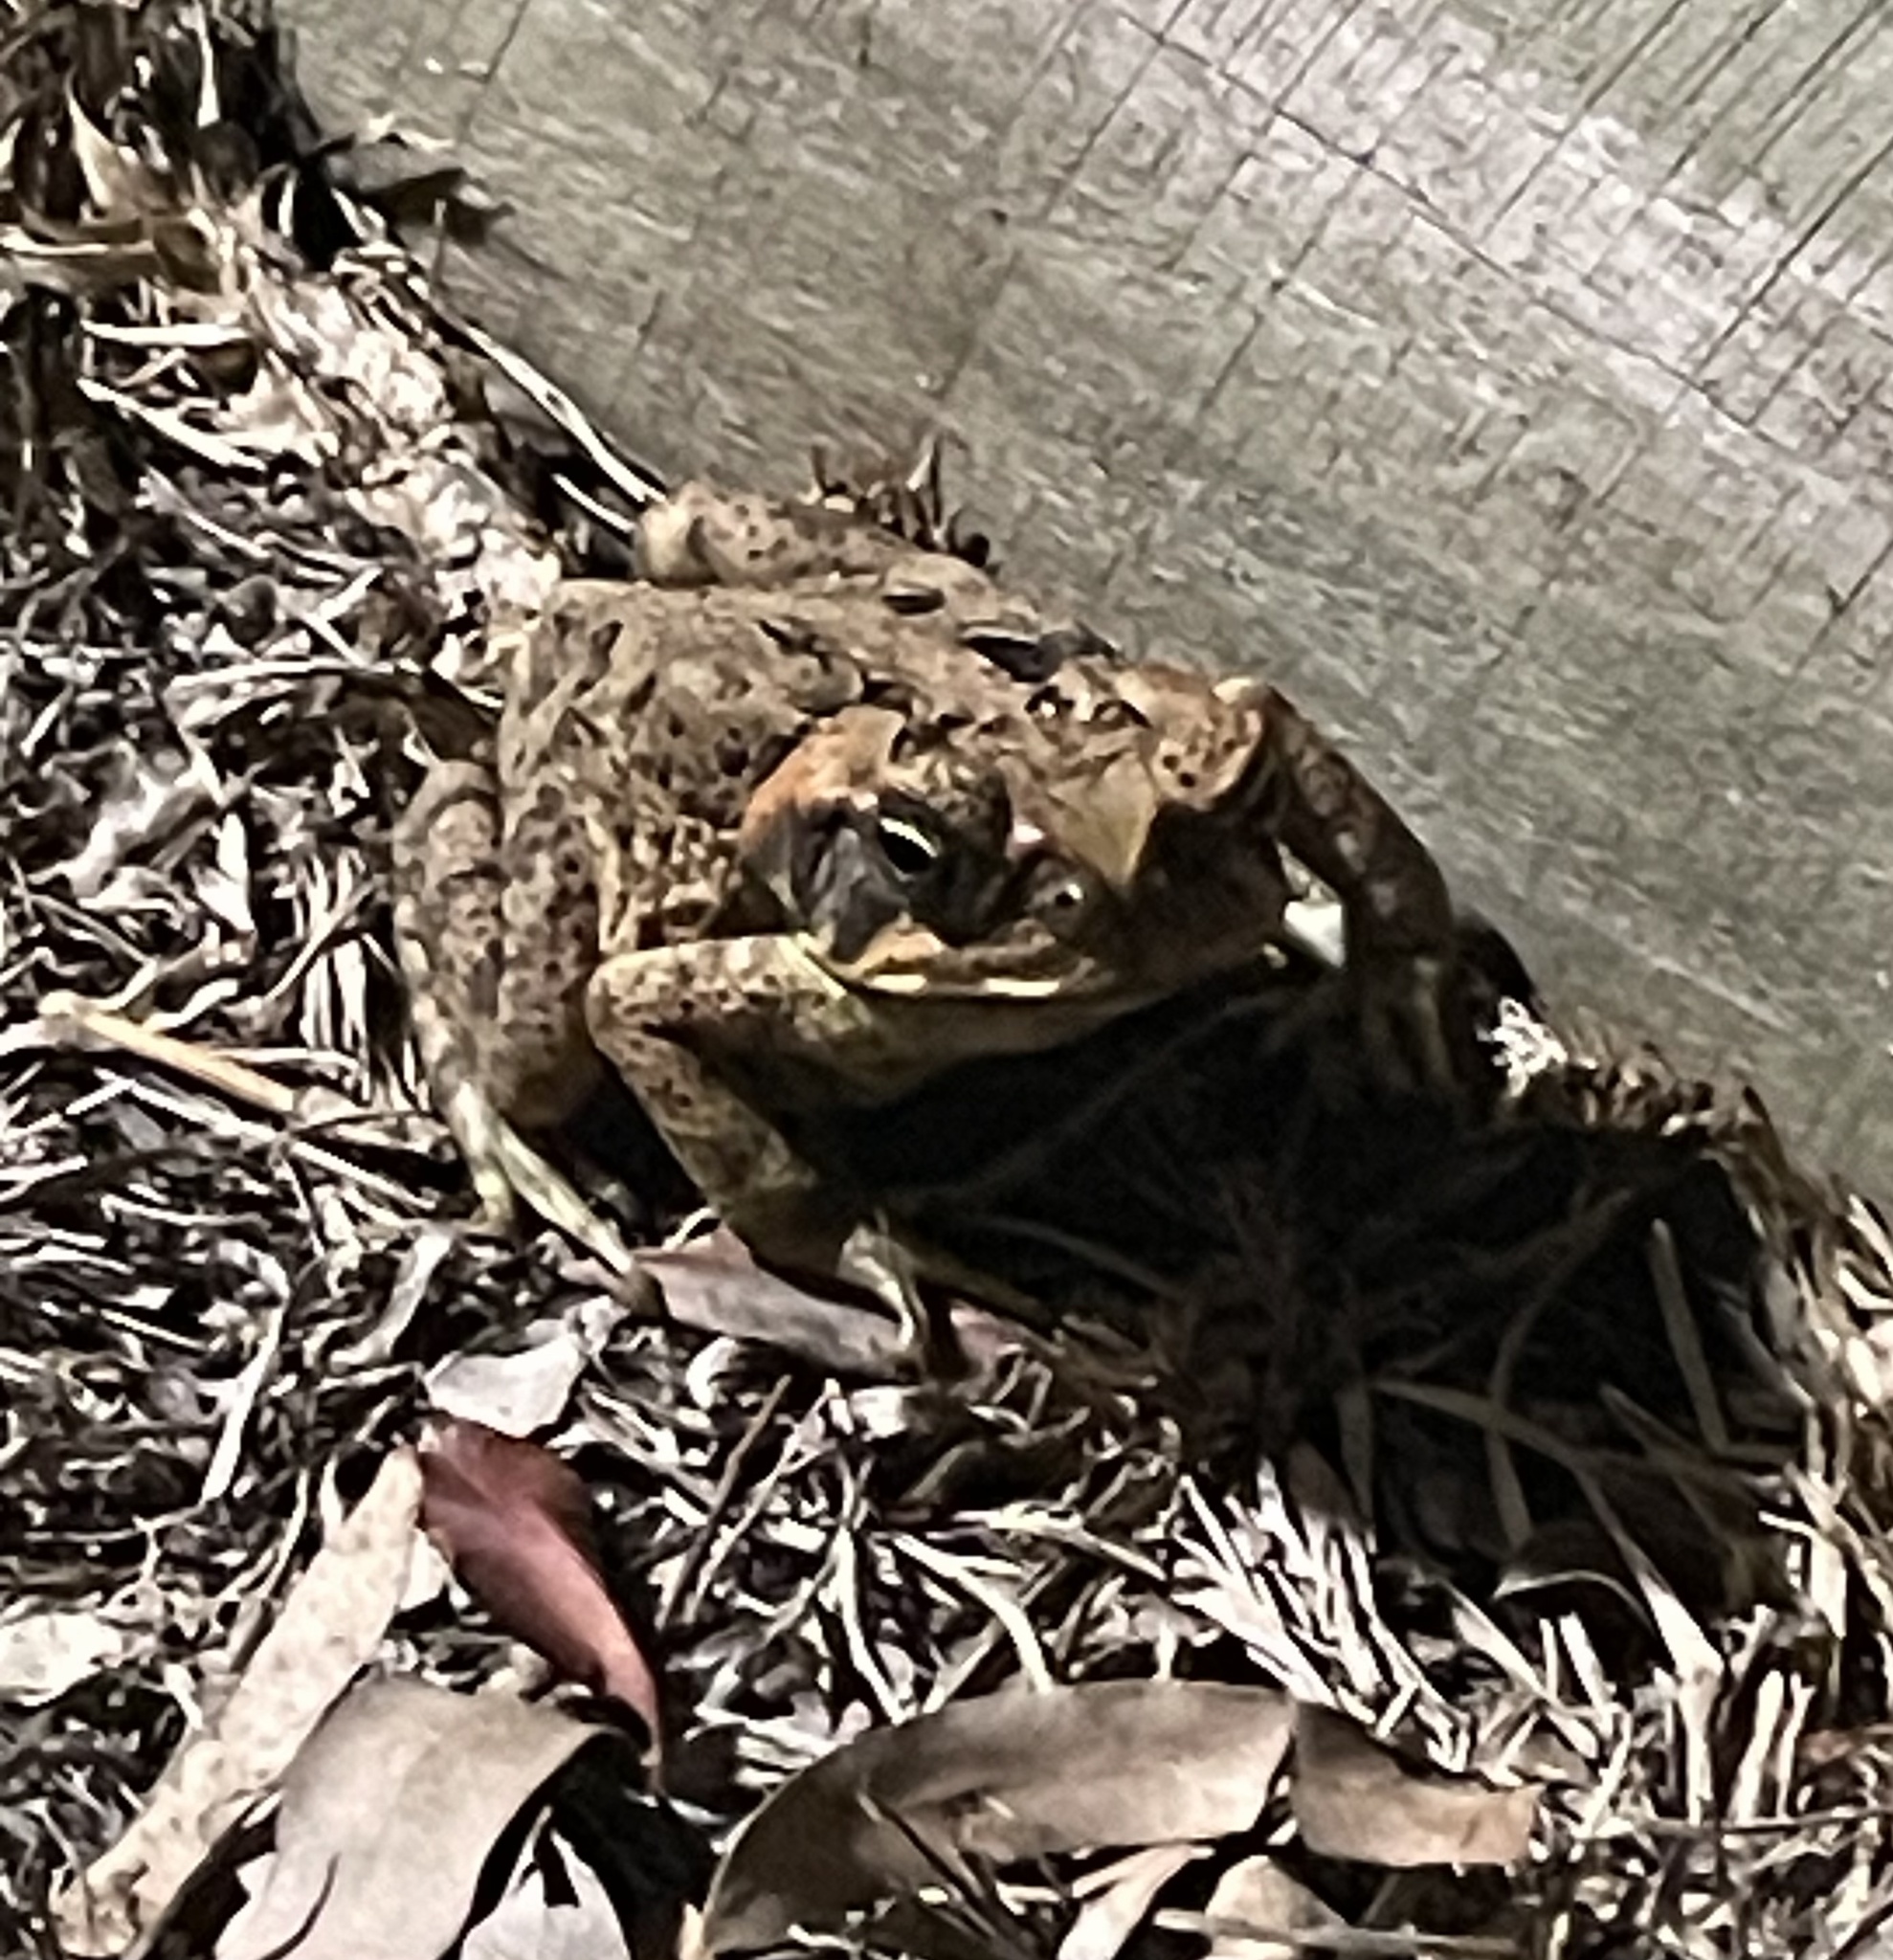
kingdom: Animalia
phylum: Chordata
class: Amphibia
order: Anura
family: Bufonidae
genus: Rhinella
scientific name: Rhinella marina
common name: Cane toad
